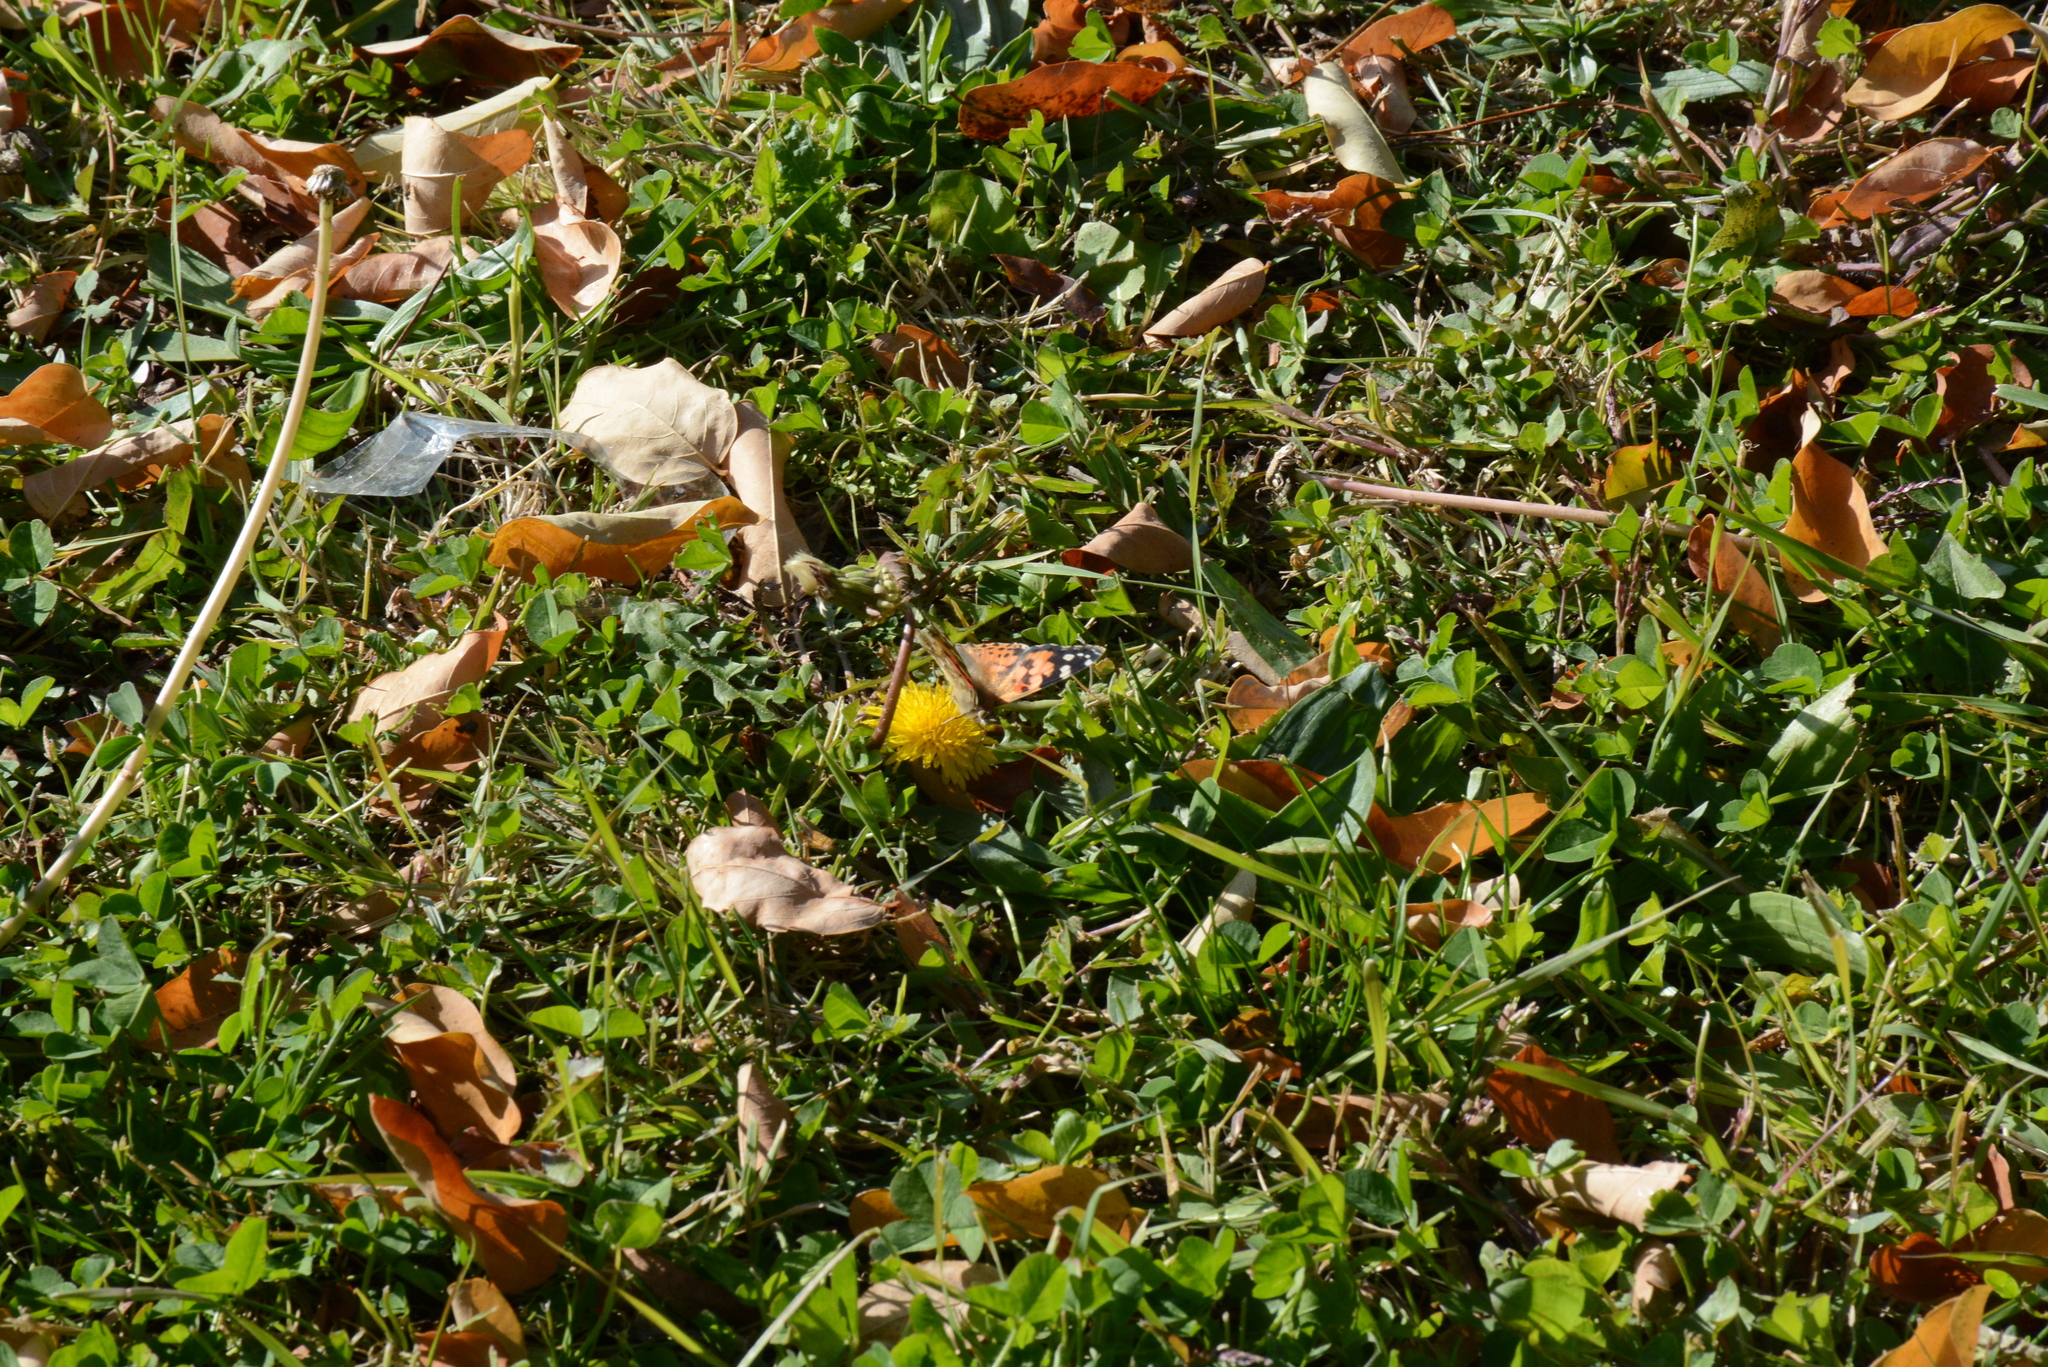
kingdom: Animalia
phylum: Arthropoda
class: Insecta
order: Lepidoptera
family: Nymphalidae
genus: Vanessa
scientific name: Vanessa cardui
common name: Painted lady
